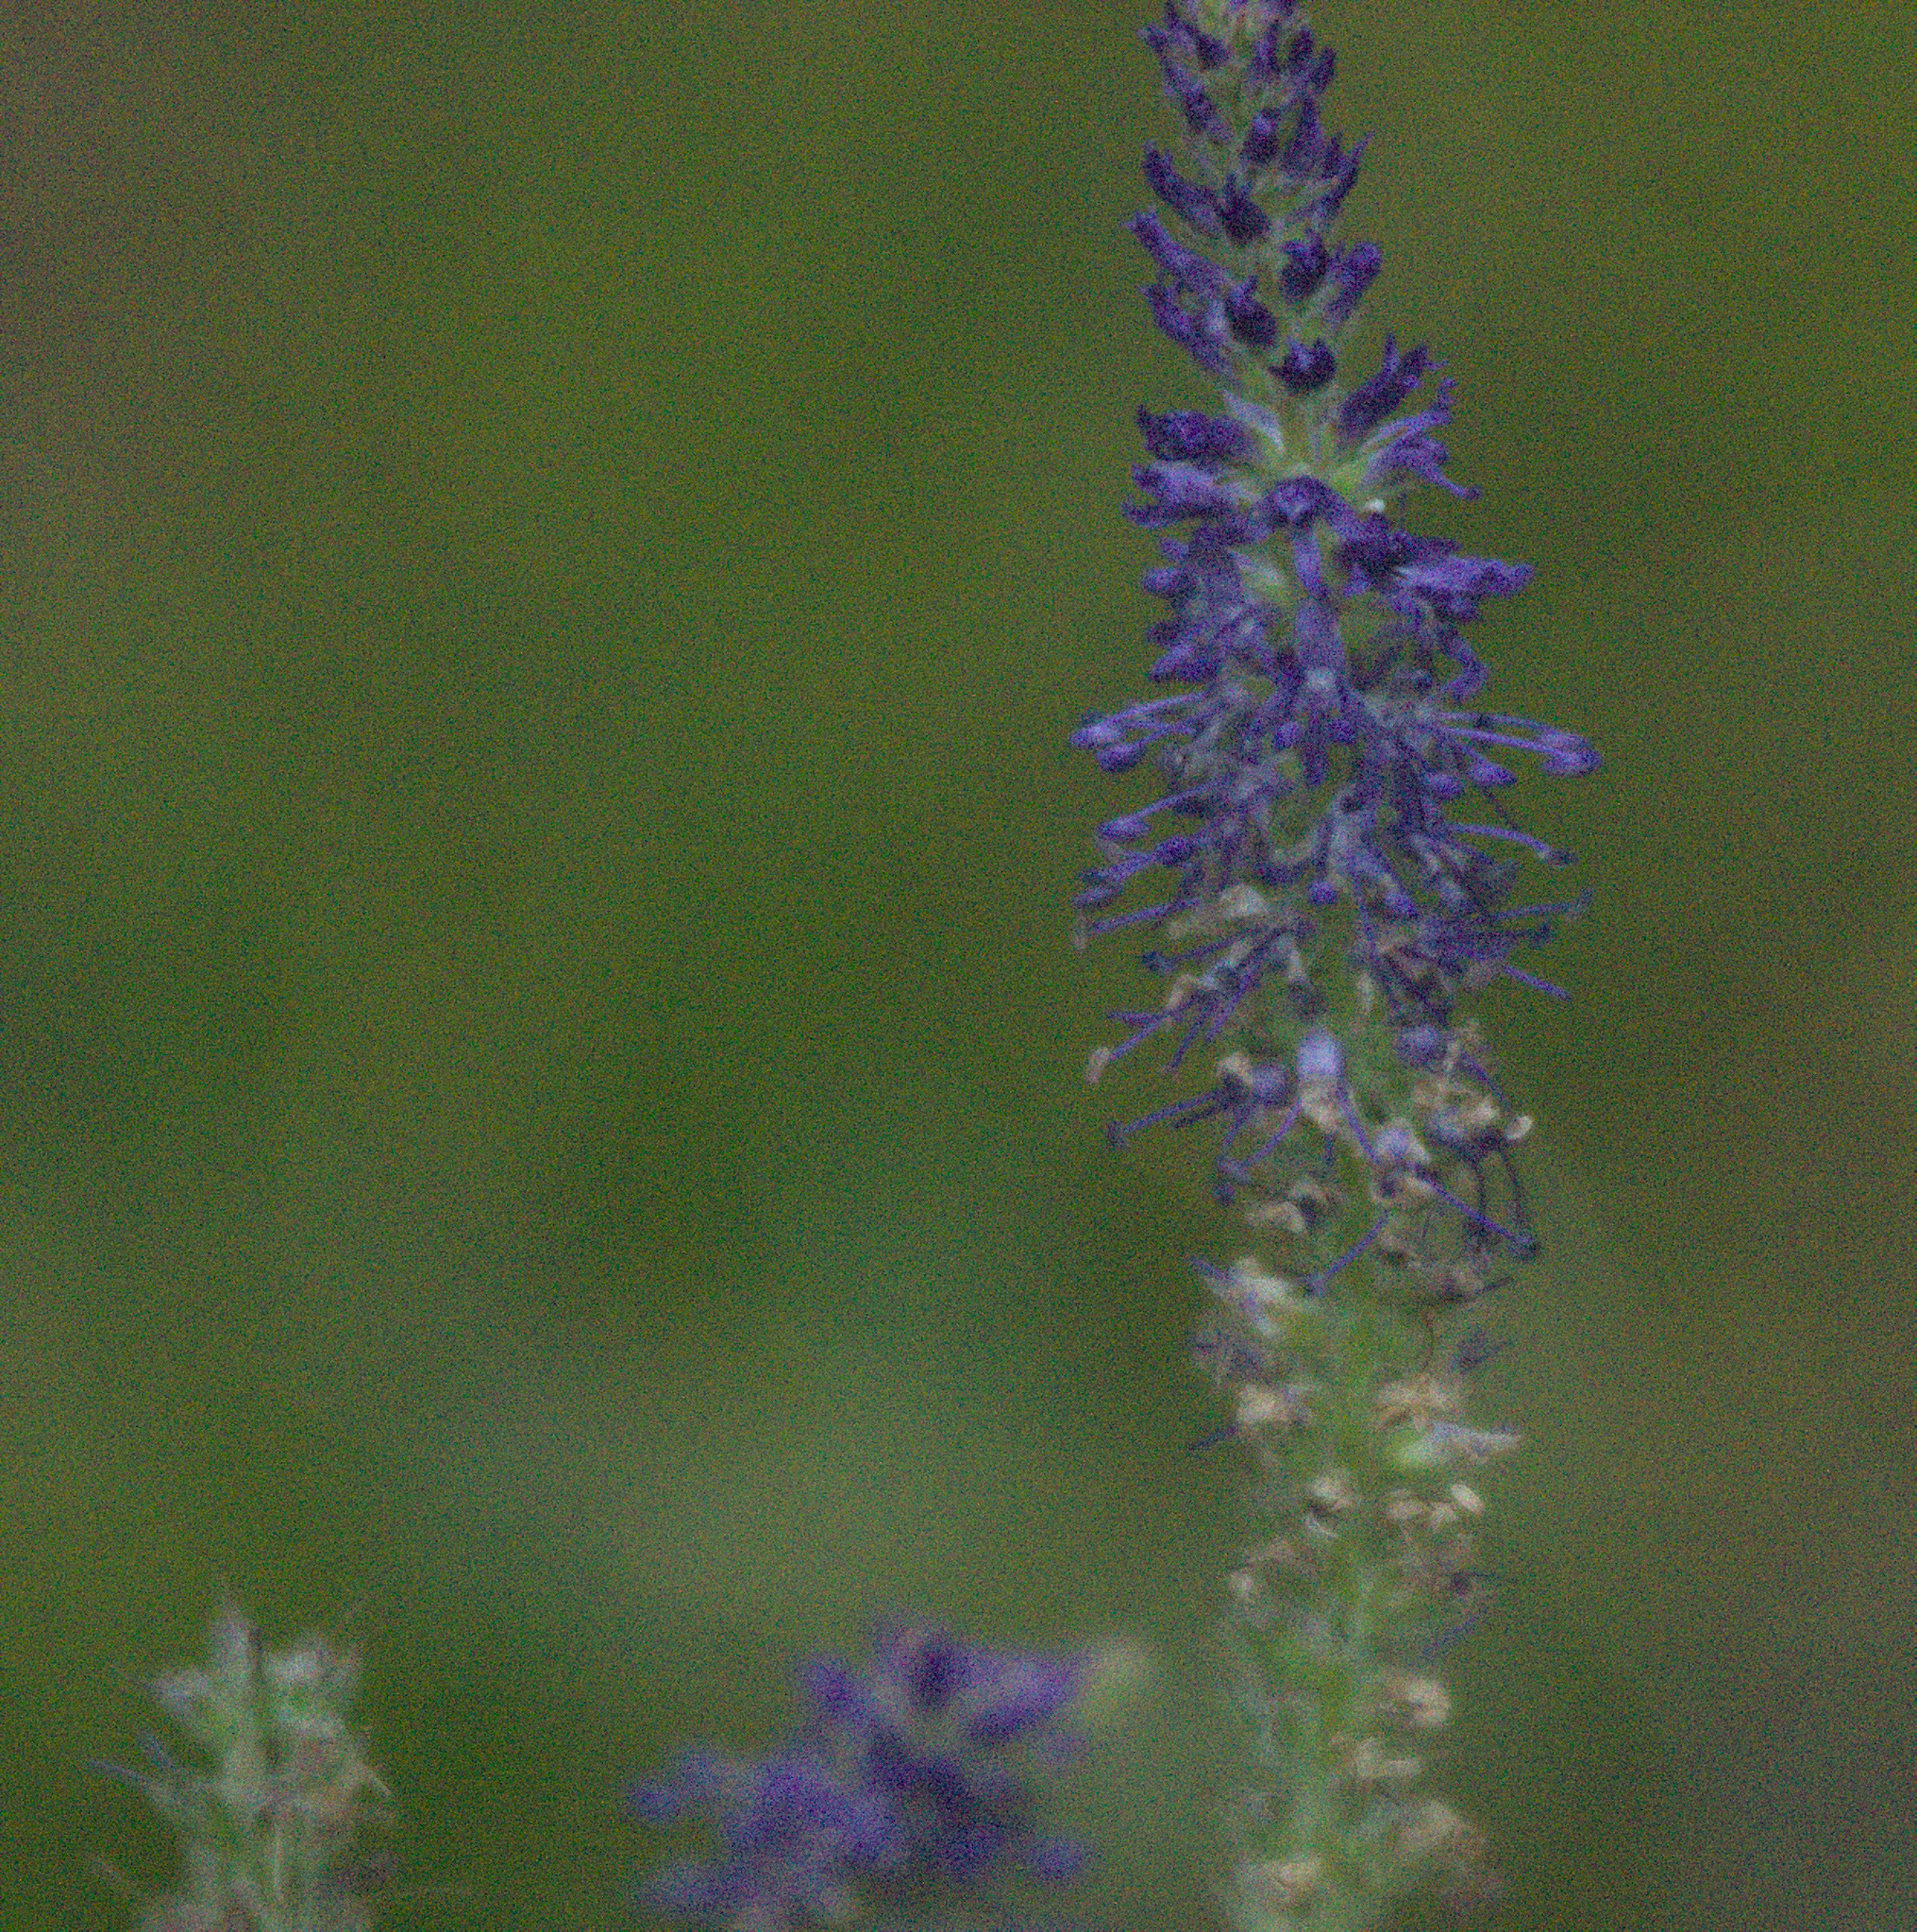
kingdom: Plantae
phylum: Tracheophyta
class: Magnoliopsida
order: Lamiales
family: Plantaginaceae
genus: Veronica
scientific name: Veronica porphyriana
